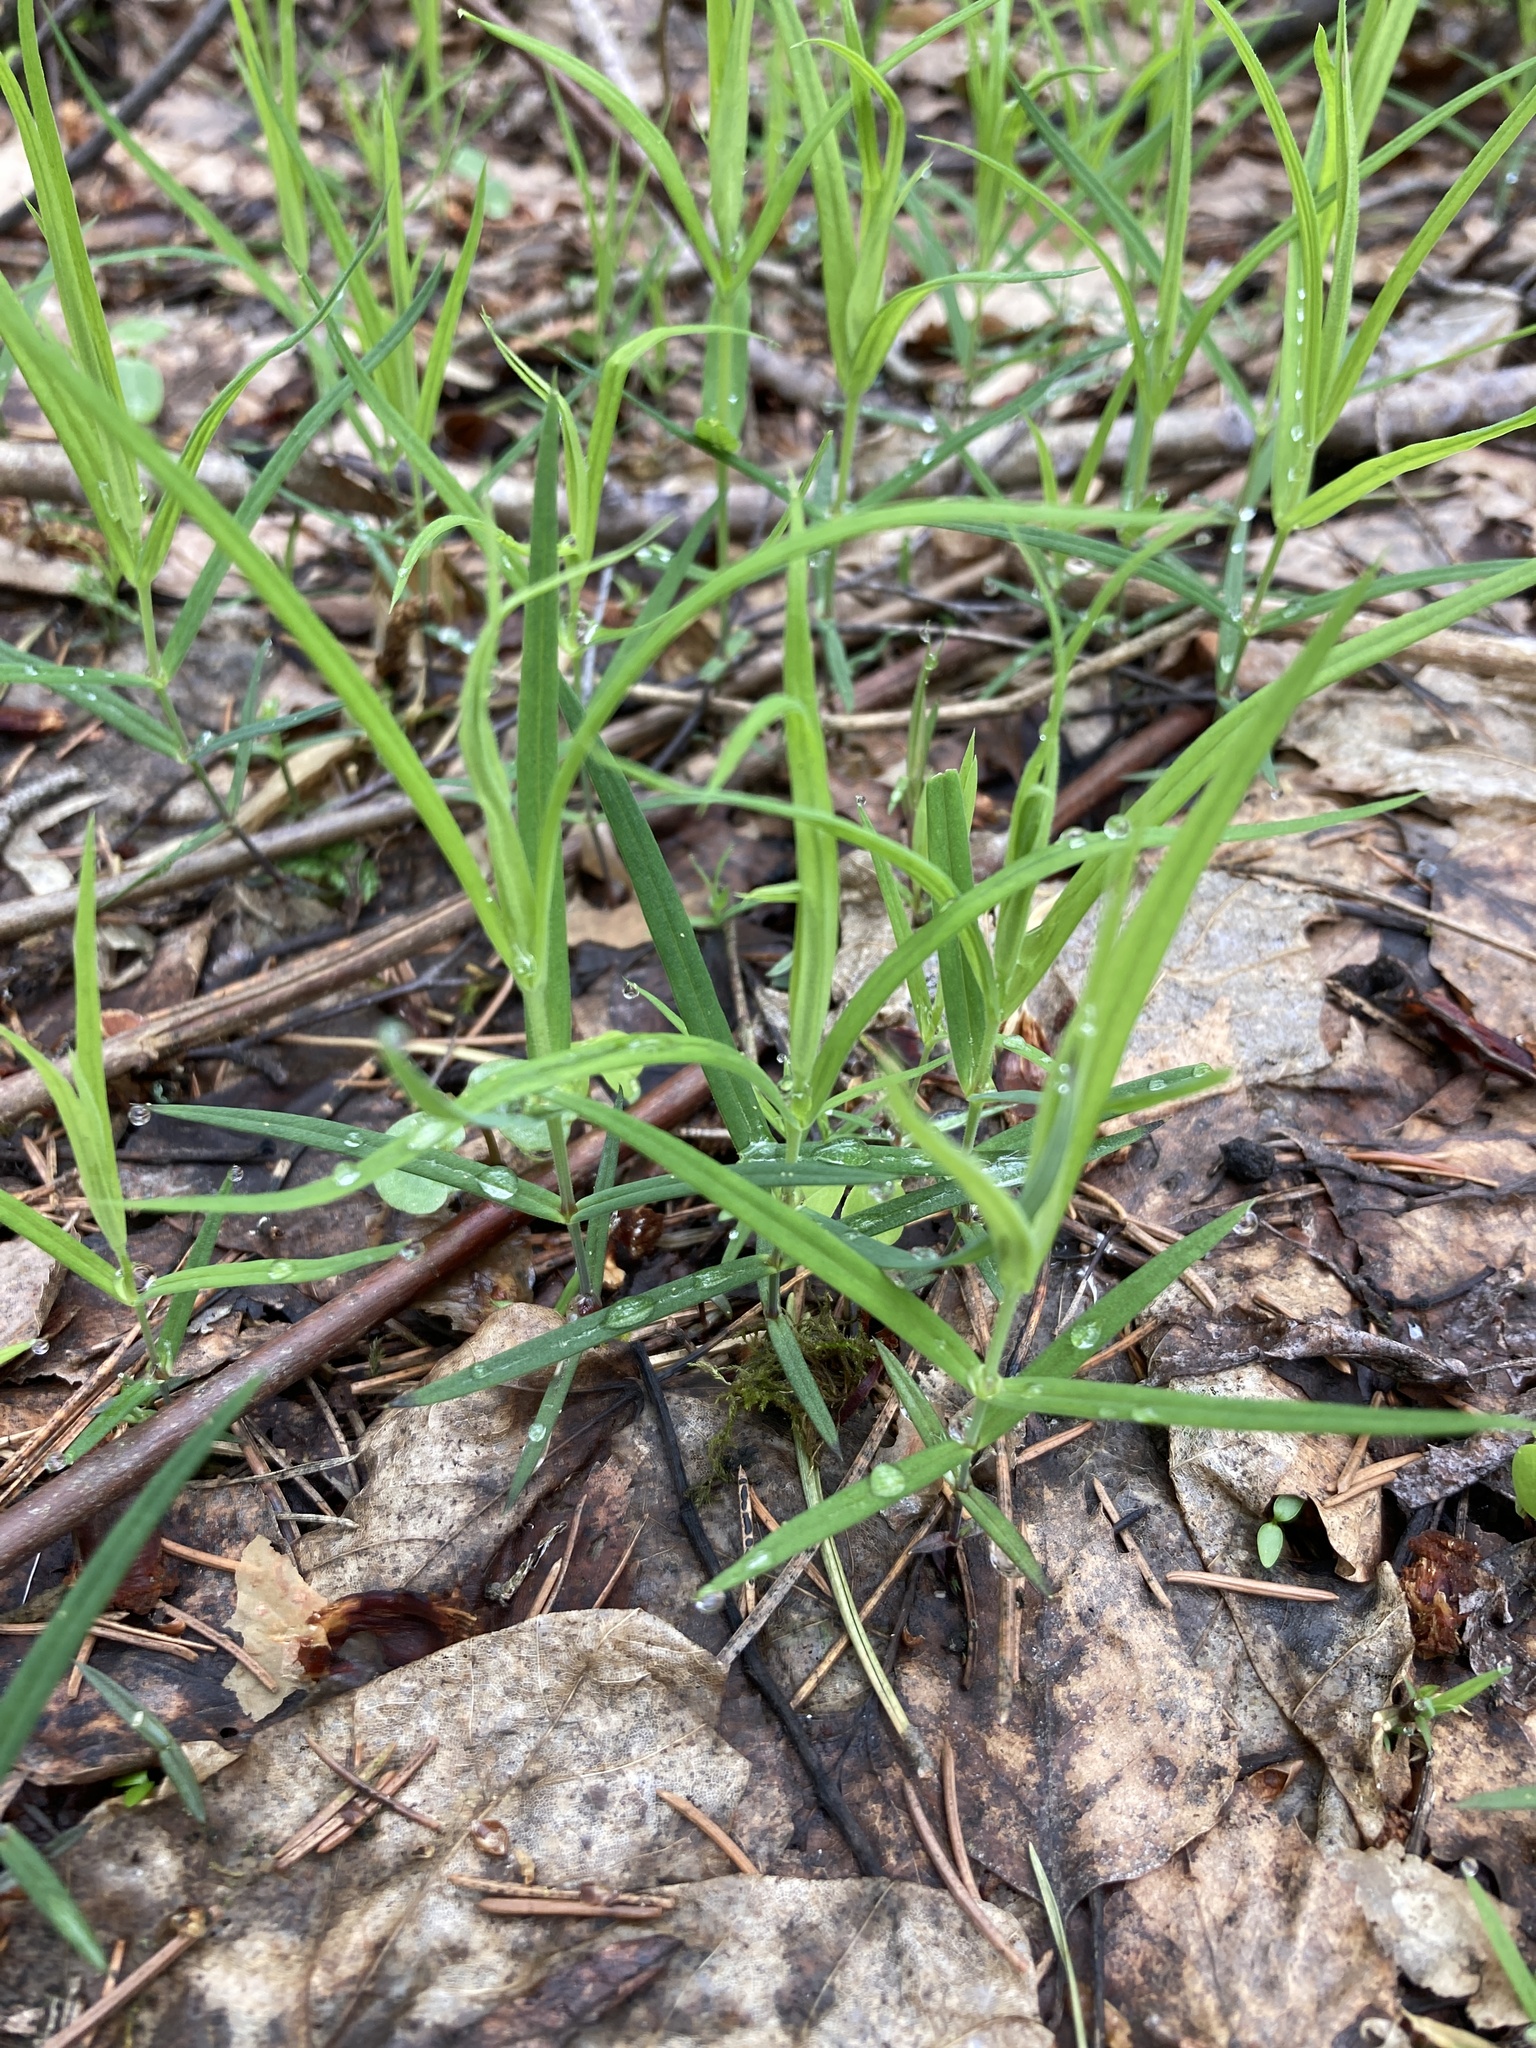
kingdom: Plantae
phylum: Tracheophyta
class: Magnoliopsida
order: Caryophyllales
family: Caryophyllaceae
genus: Rabelera
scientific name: Rabelera holostea
